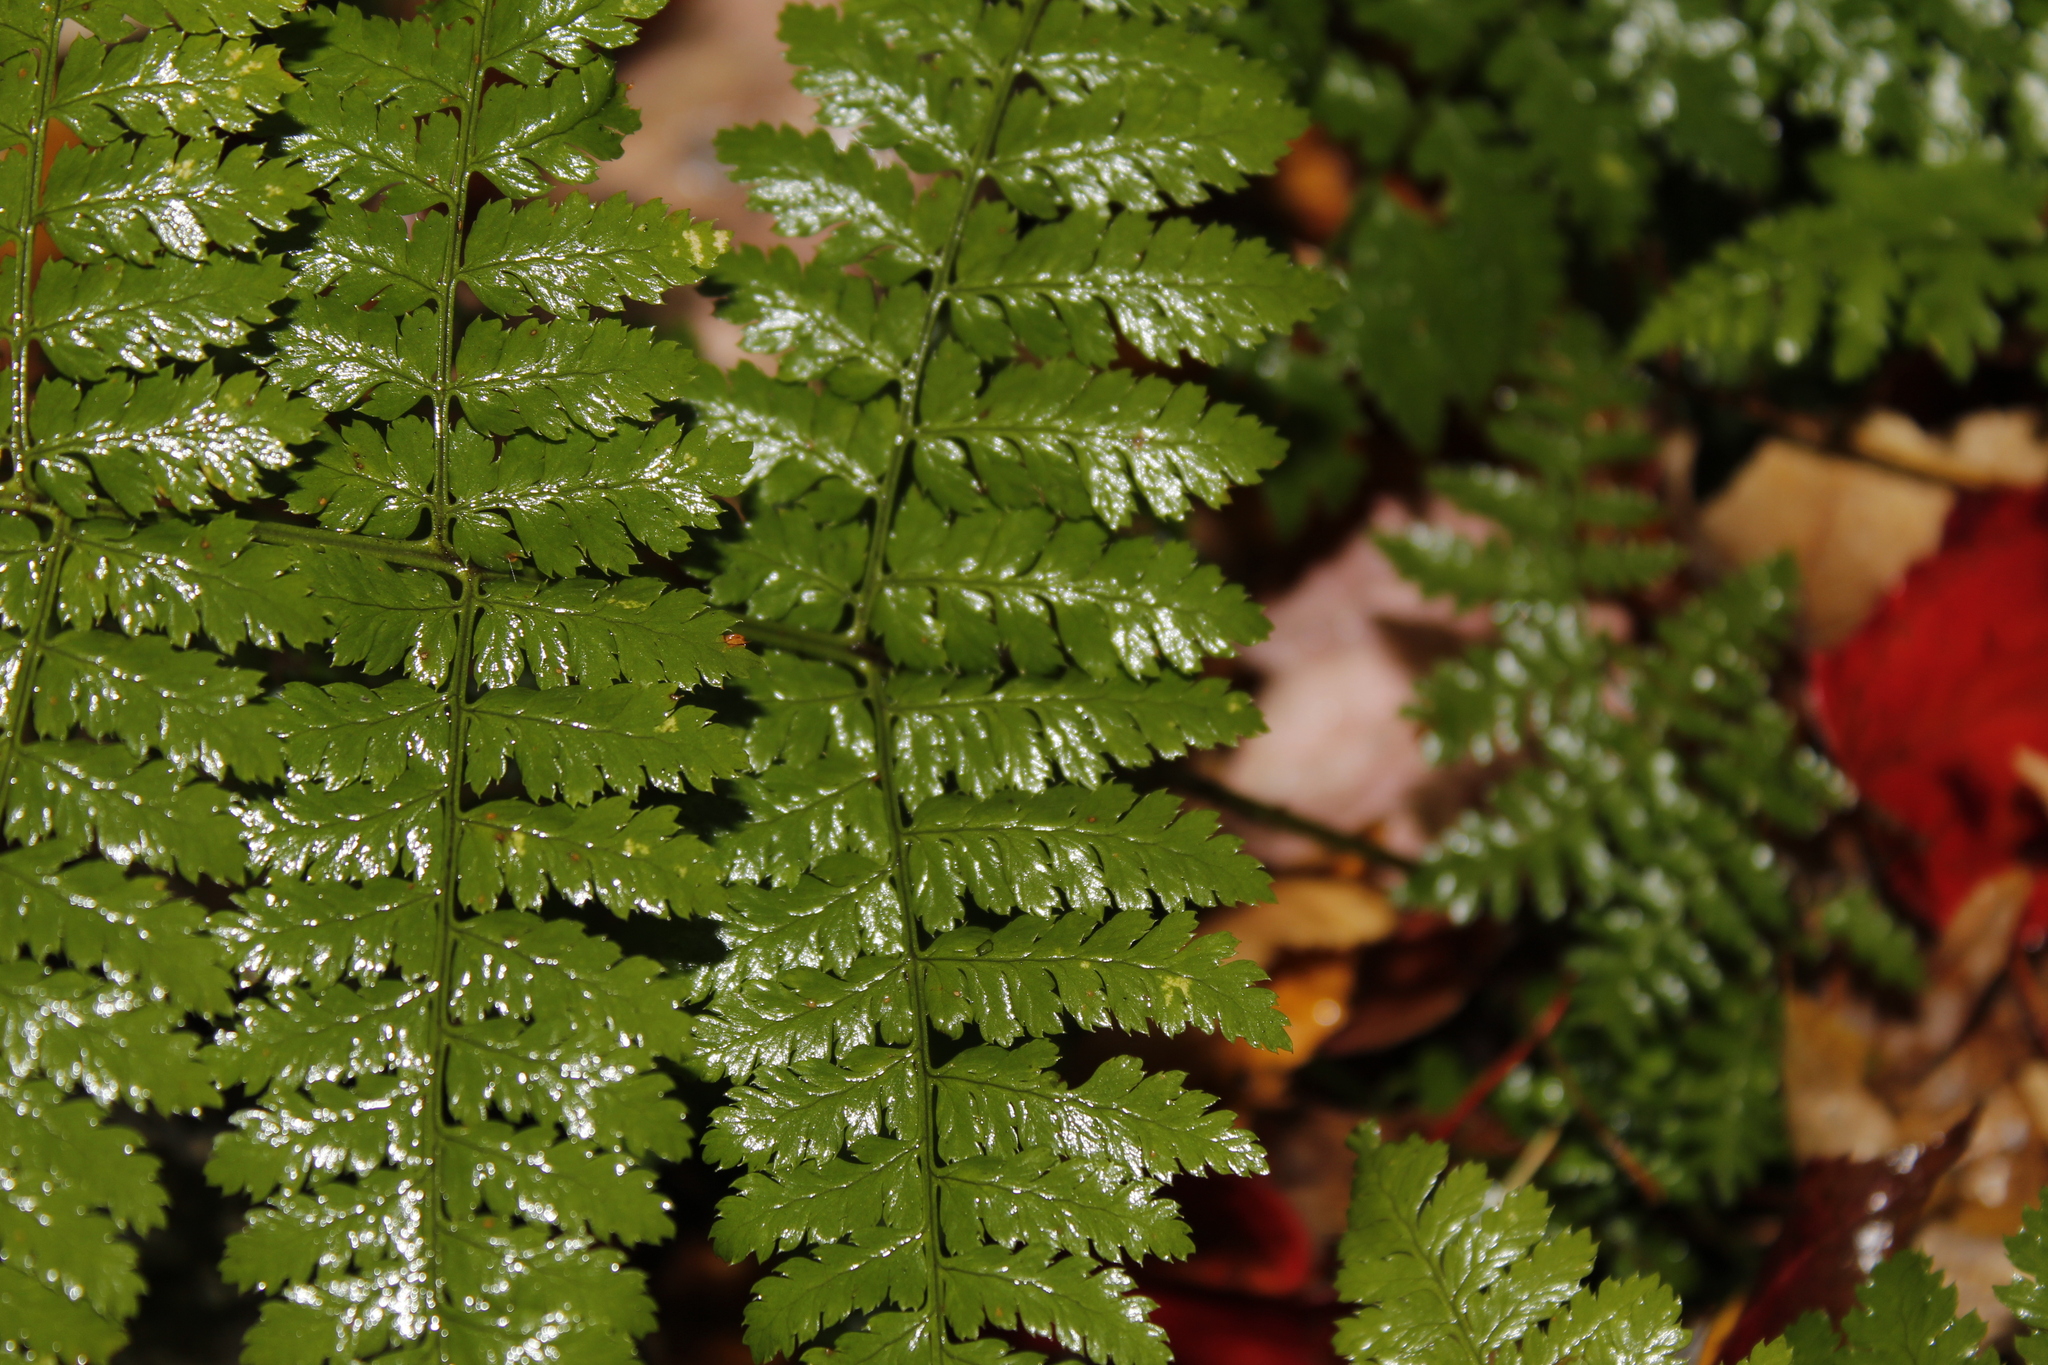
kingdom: Plantae
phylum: Tracheophyta
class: Polypodiopsida
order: Polypodiales
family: Dryopteridaceae
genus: Dryopteris
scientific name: Dryopteris intermedia
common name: Evergreen wood fern
